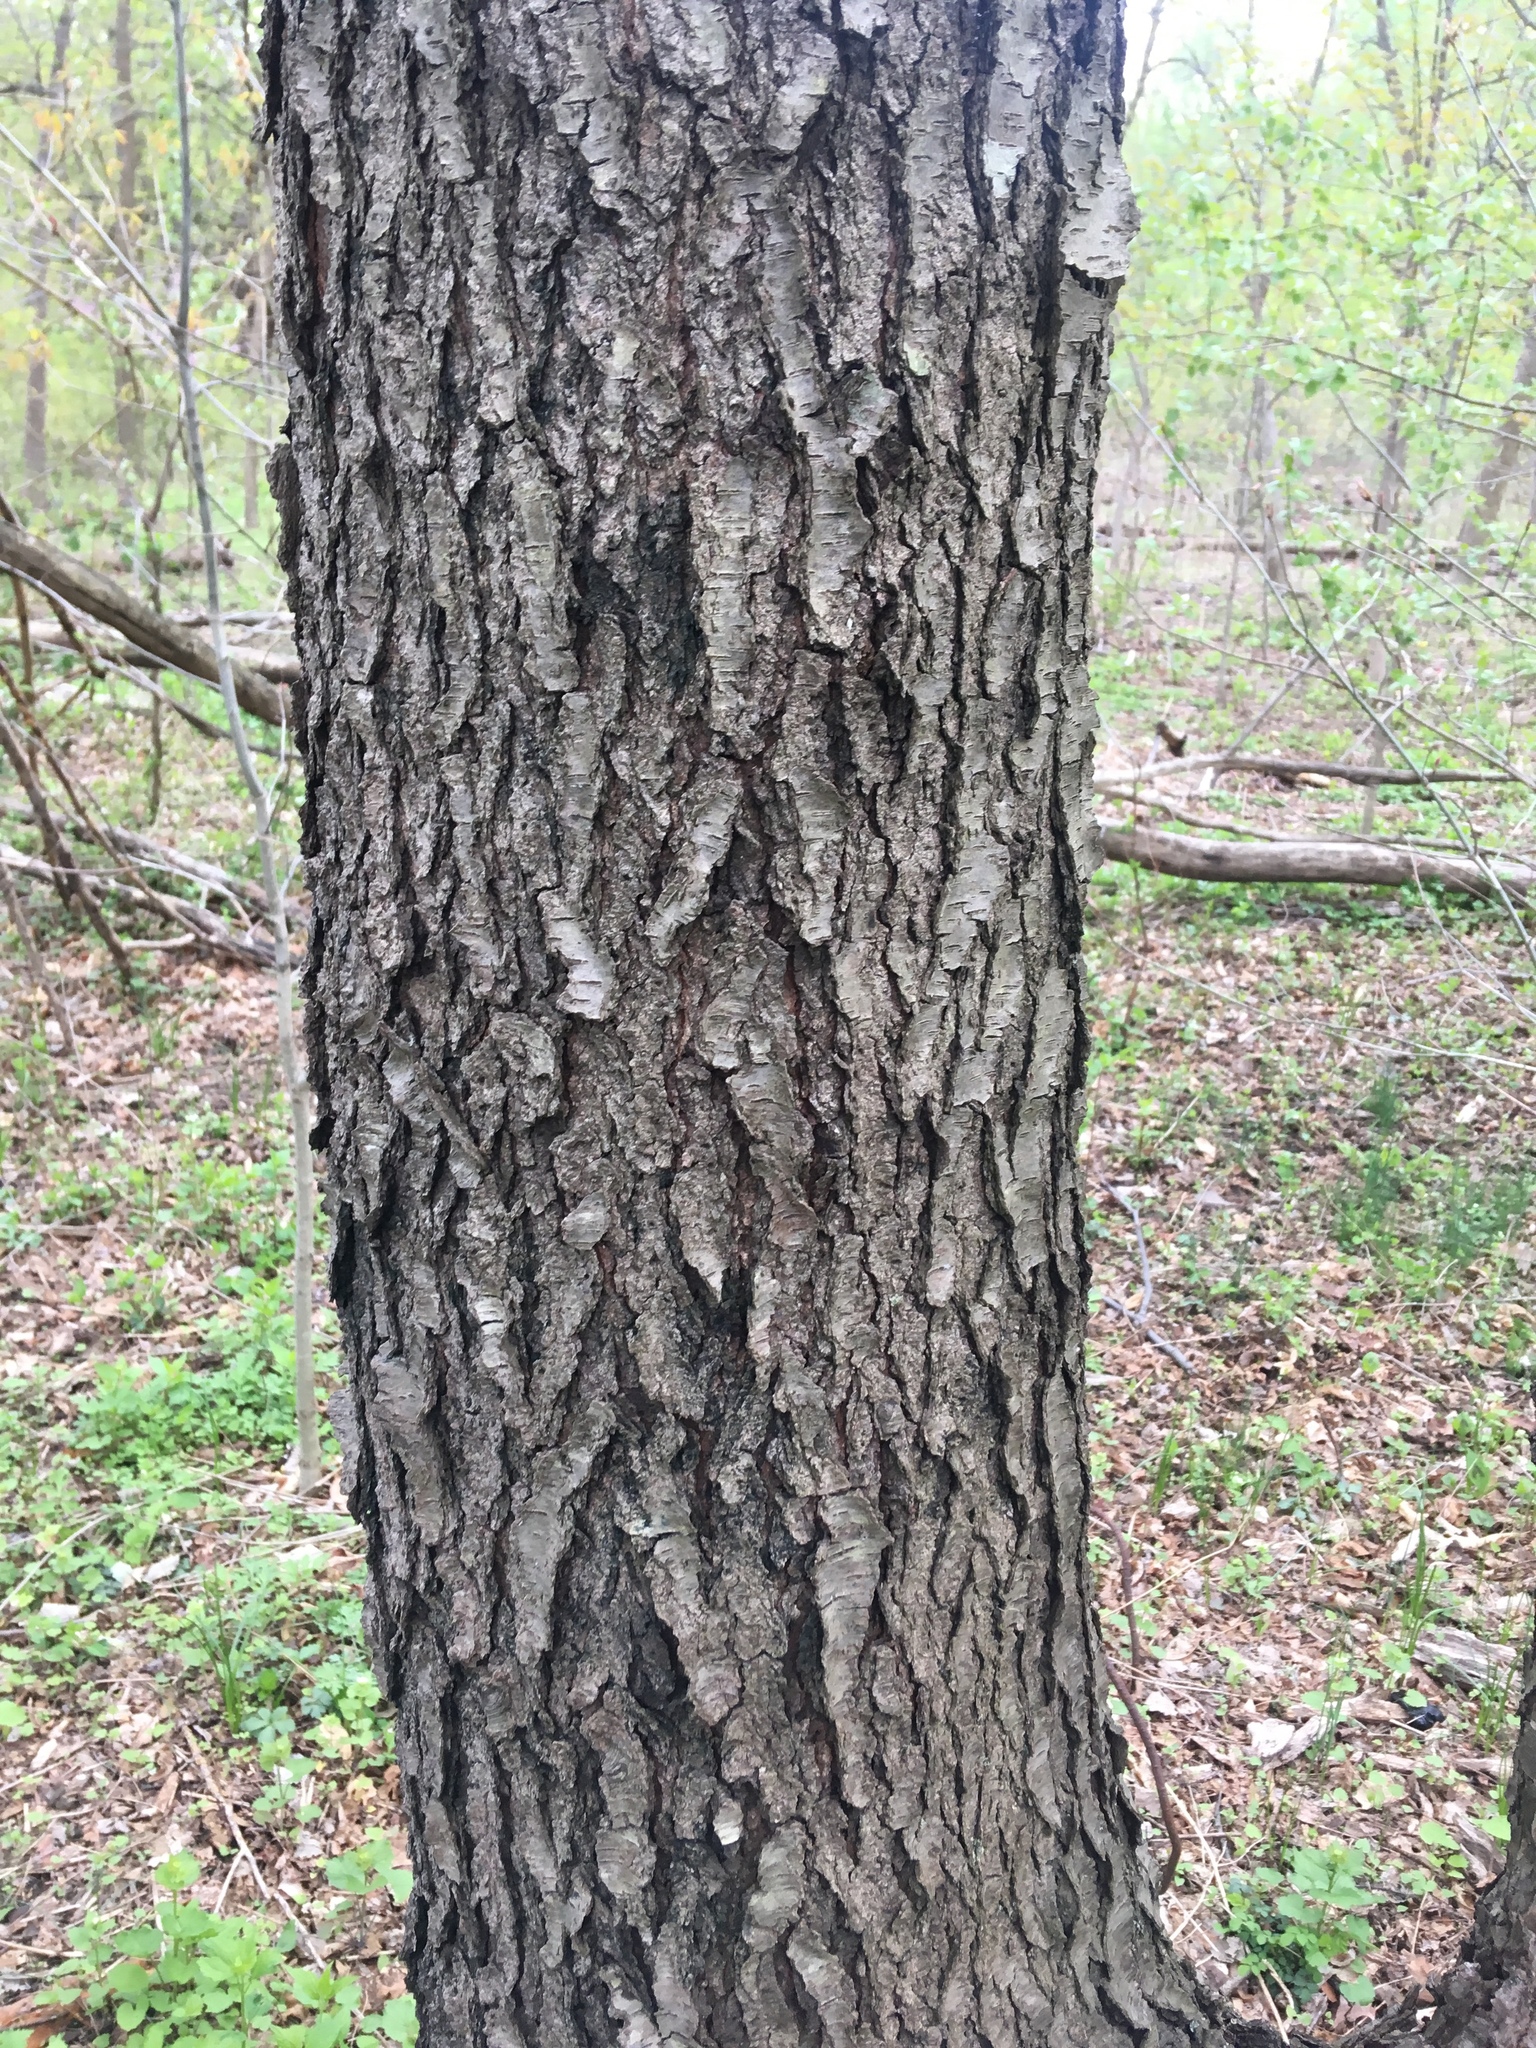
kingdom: Plantae
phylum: Tracheophyta
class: Magnoliopsida
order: Rosales
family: Rosaceae
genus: Prunus
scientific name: Prunus serotina
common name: Black cherry
